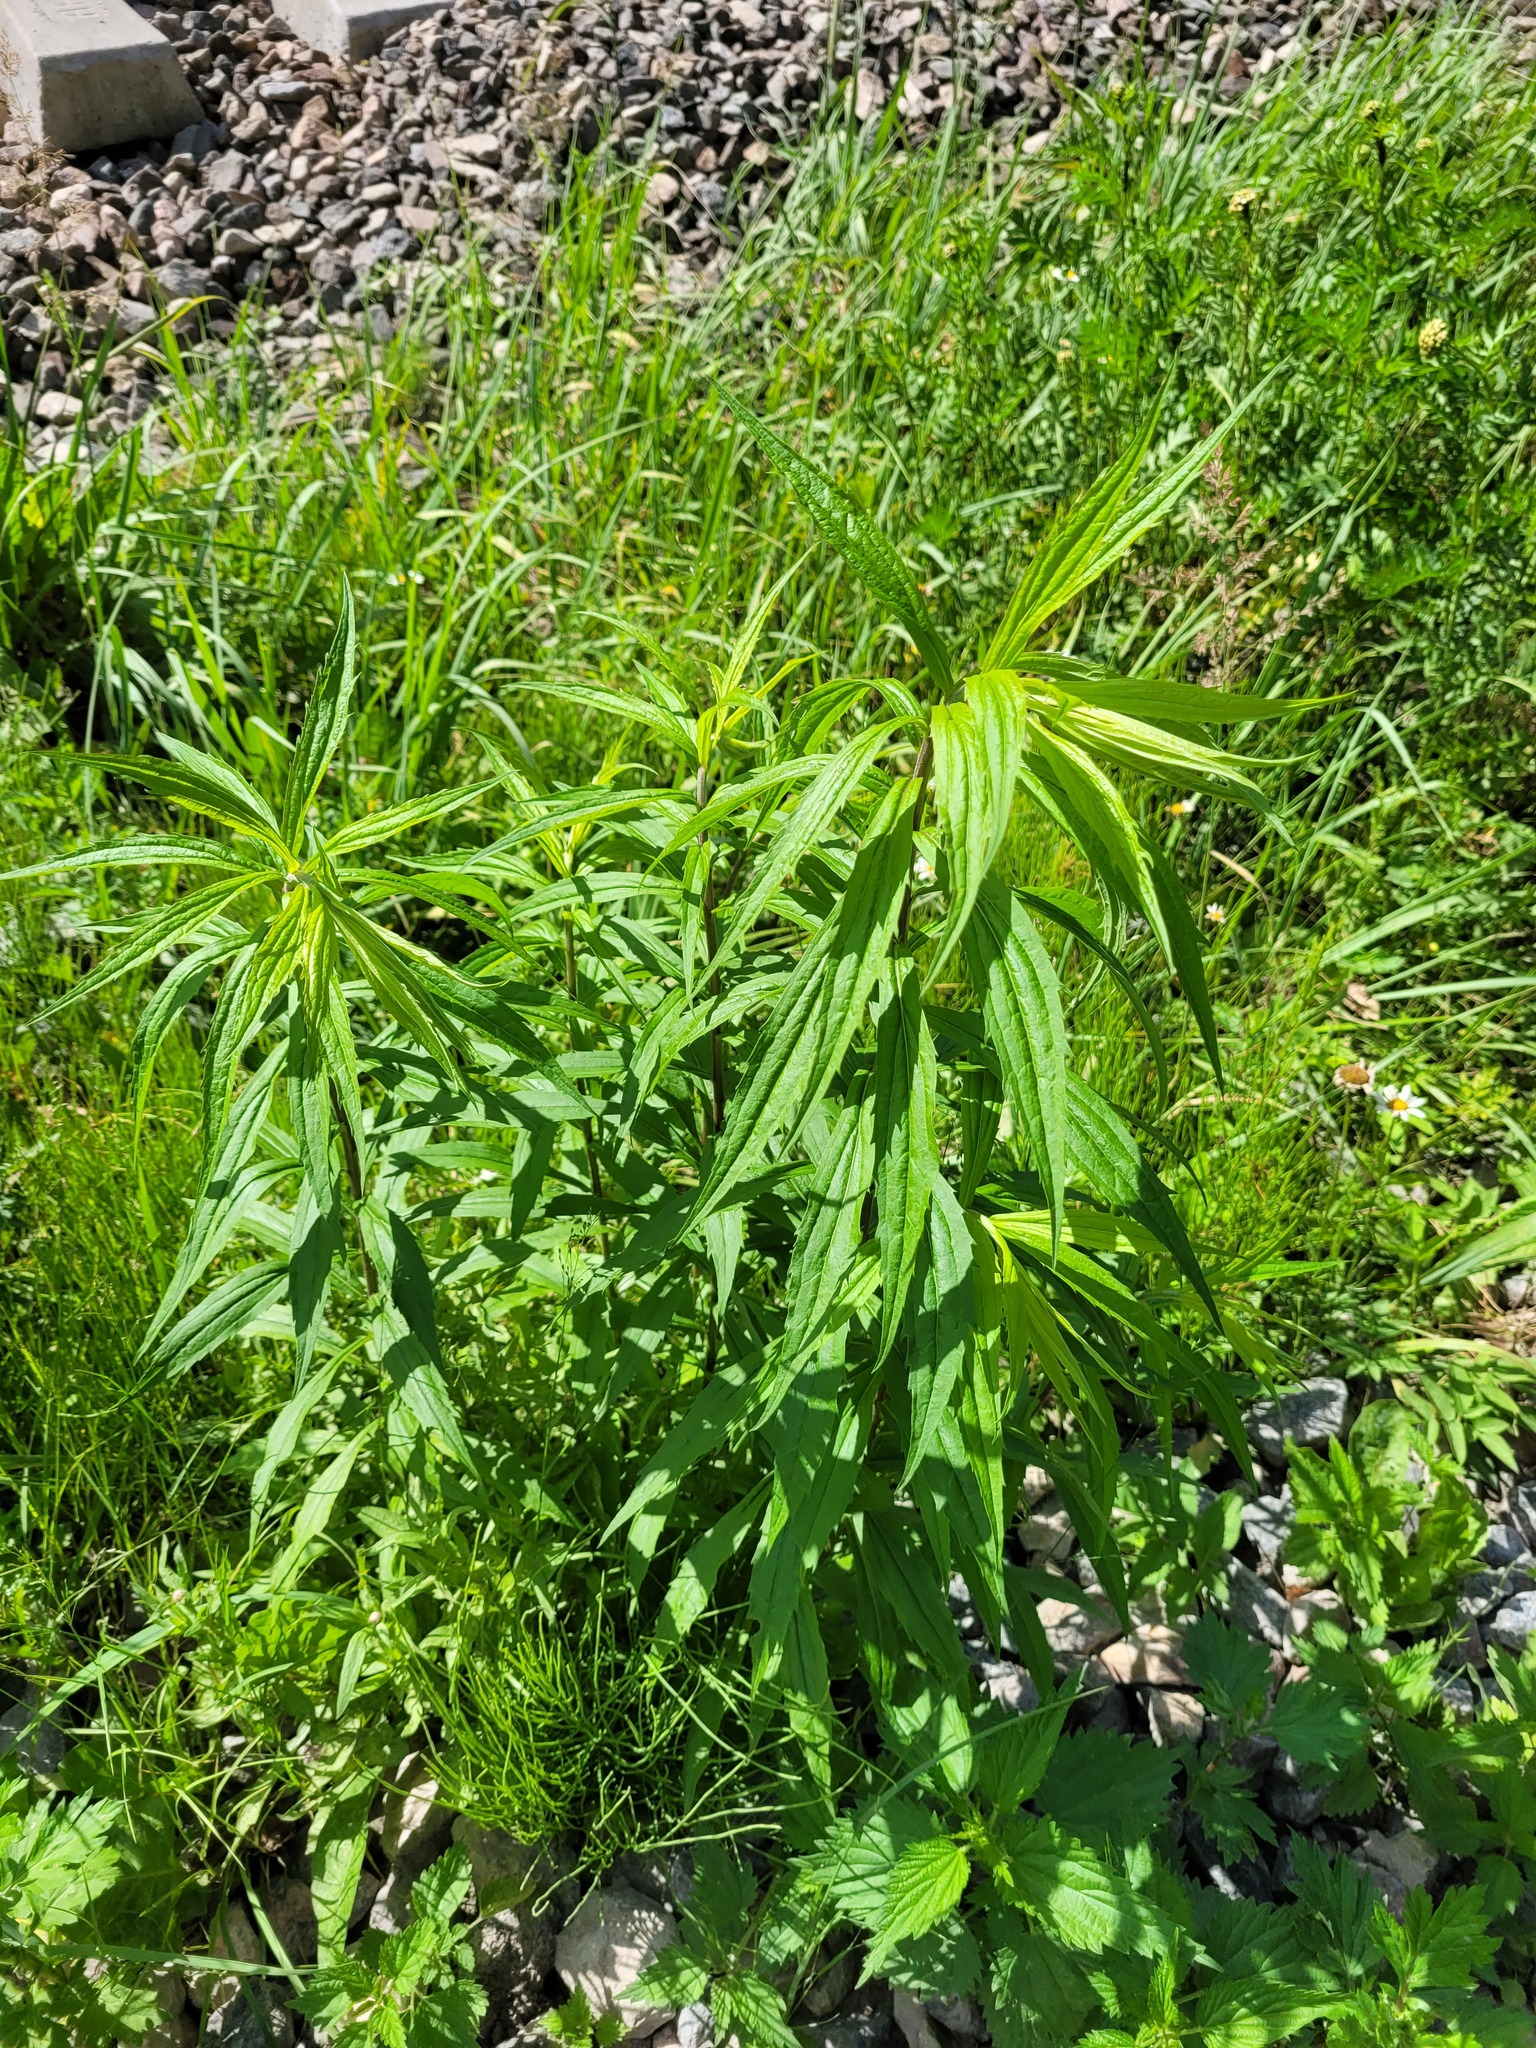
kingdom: Plantae
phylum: Tracheophyta
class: Magnoliopsida
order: Asterales
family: Asteraceae
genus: Solidago
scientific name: Solidago canadensis
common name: Canada goldenrod
